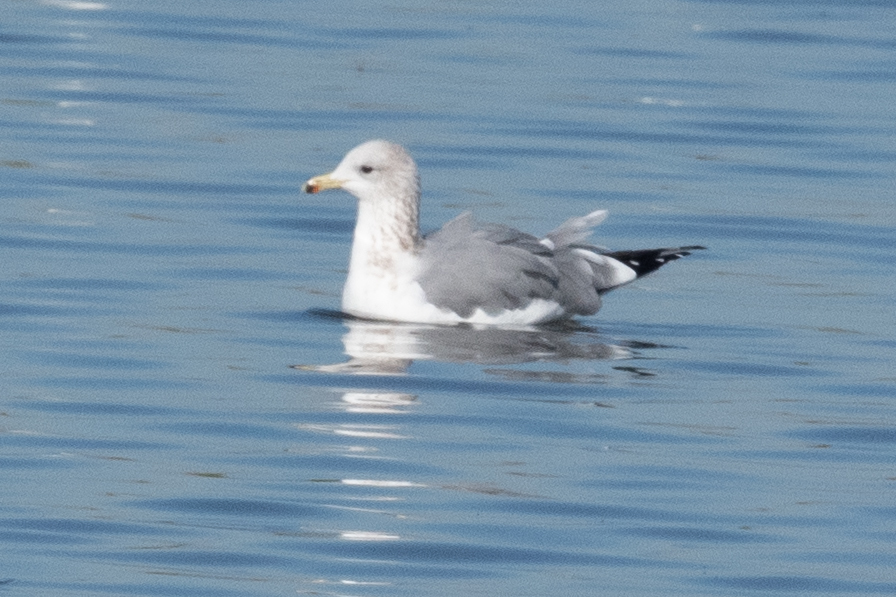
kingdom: Animalia
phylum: Chordata
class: Aves
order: Charadriiformes
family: Laridae
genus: Larus
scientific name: Larus californicus
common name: California gull
